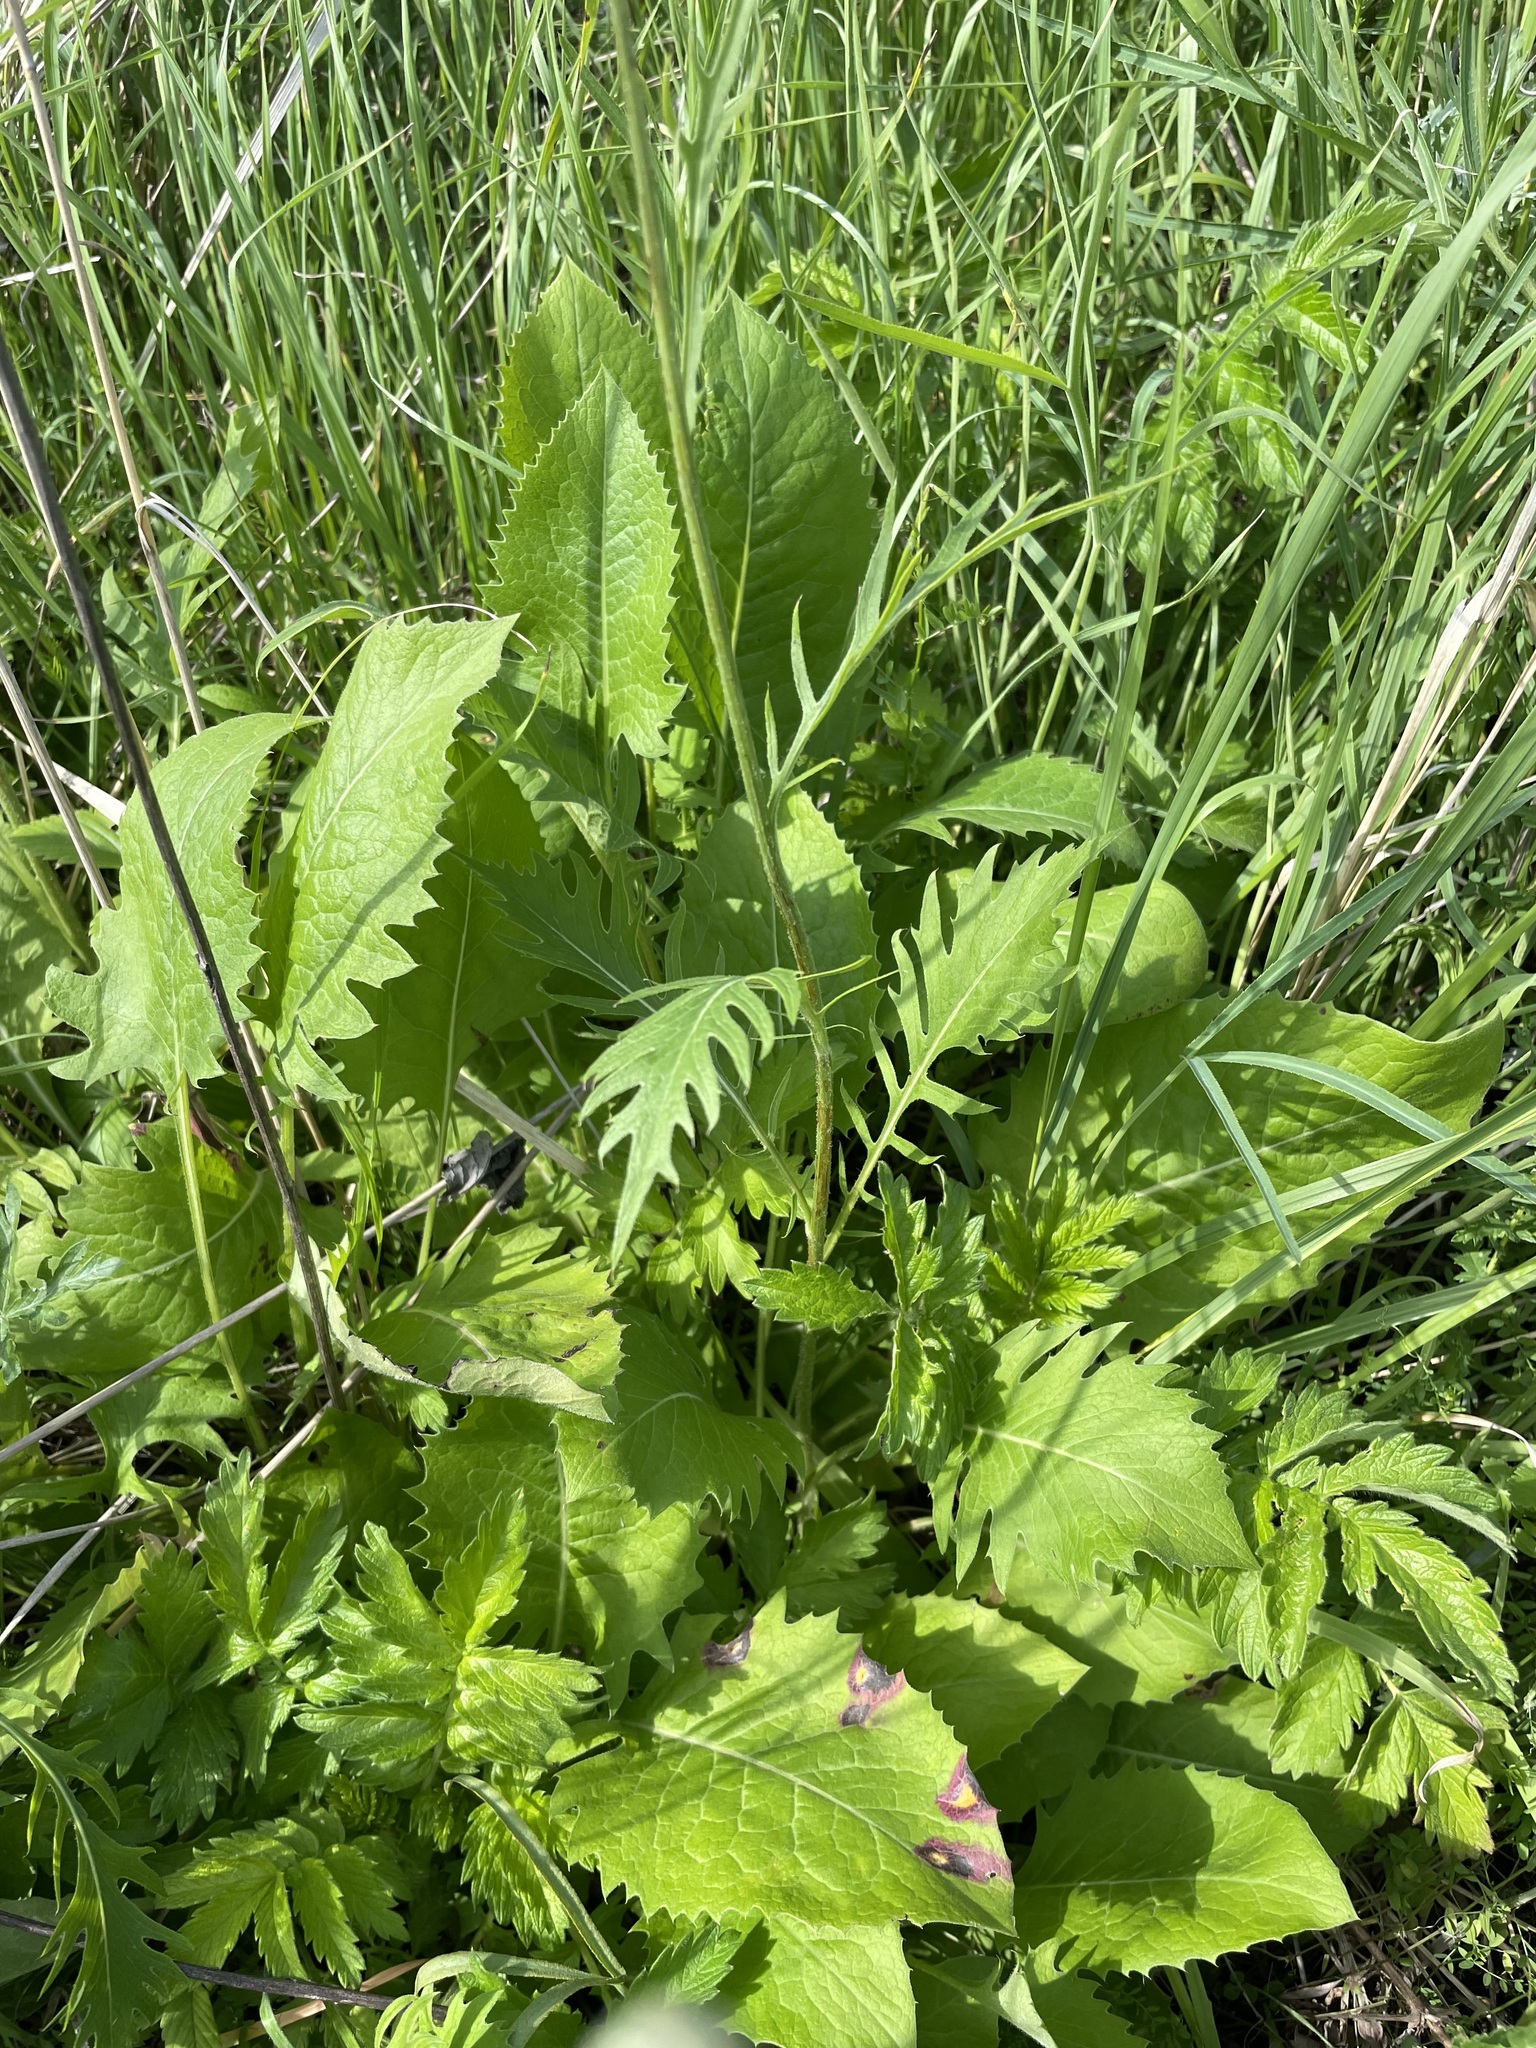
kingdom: Plantae
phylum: Tracheophyta
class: Magnoliopsida
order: Asterales
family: Asteraceae
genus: Klasea
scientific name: Klasea lycopifolia
